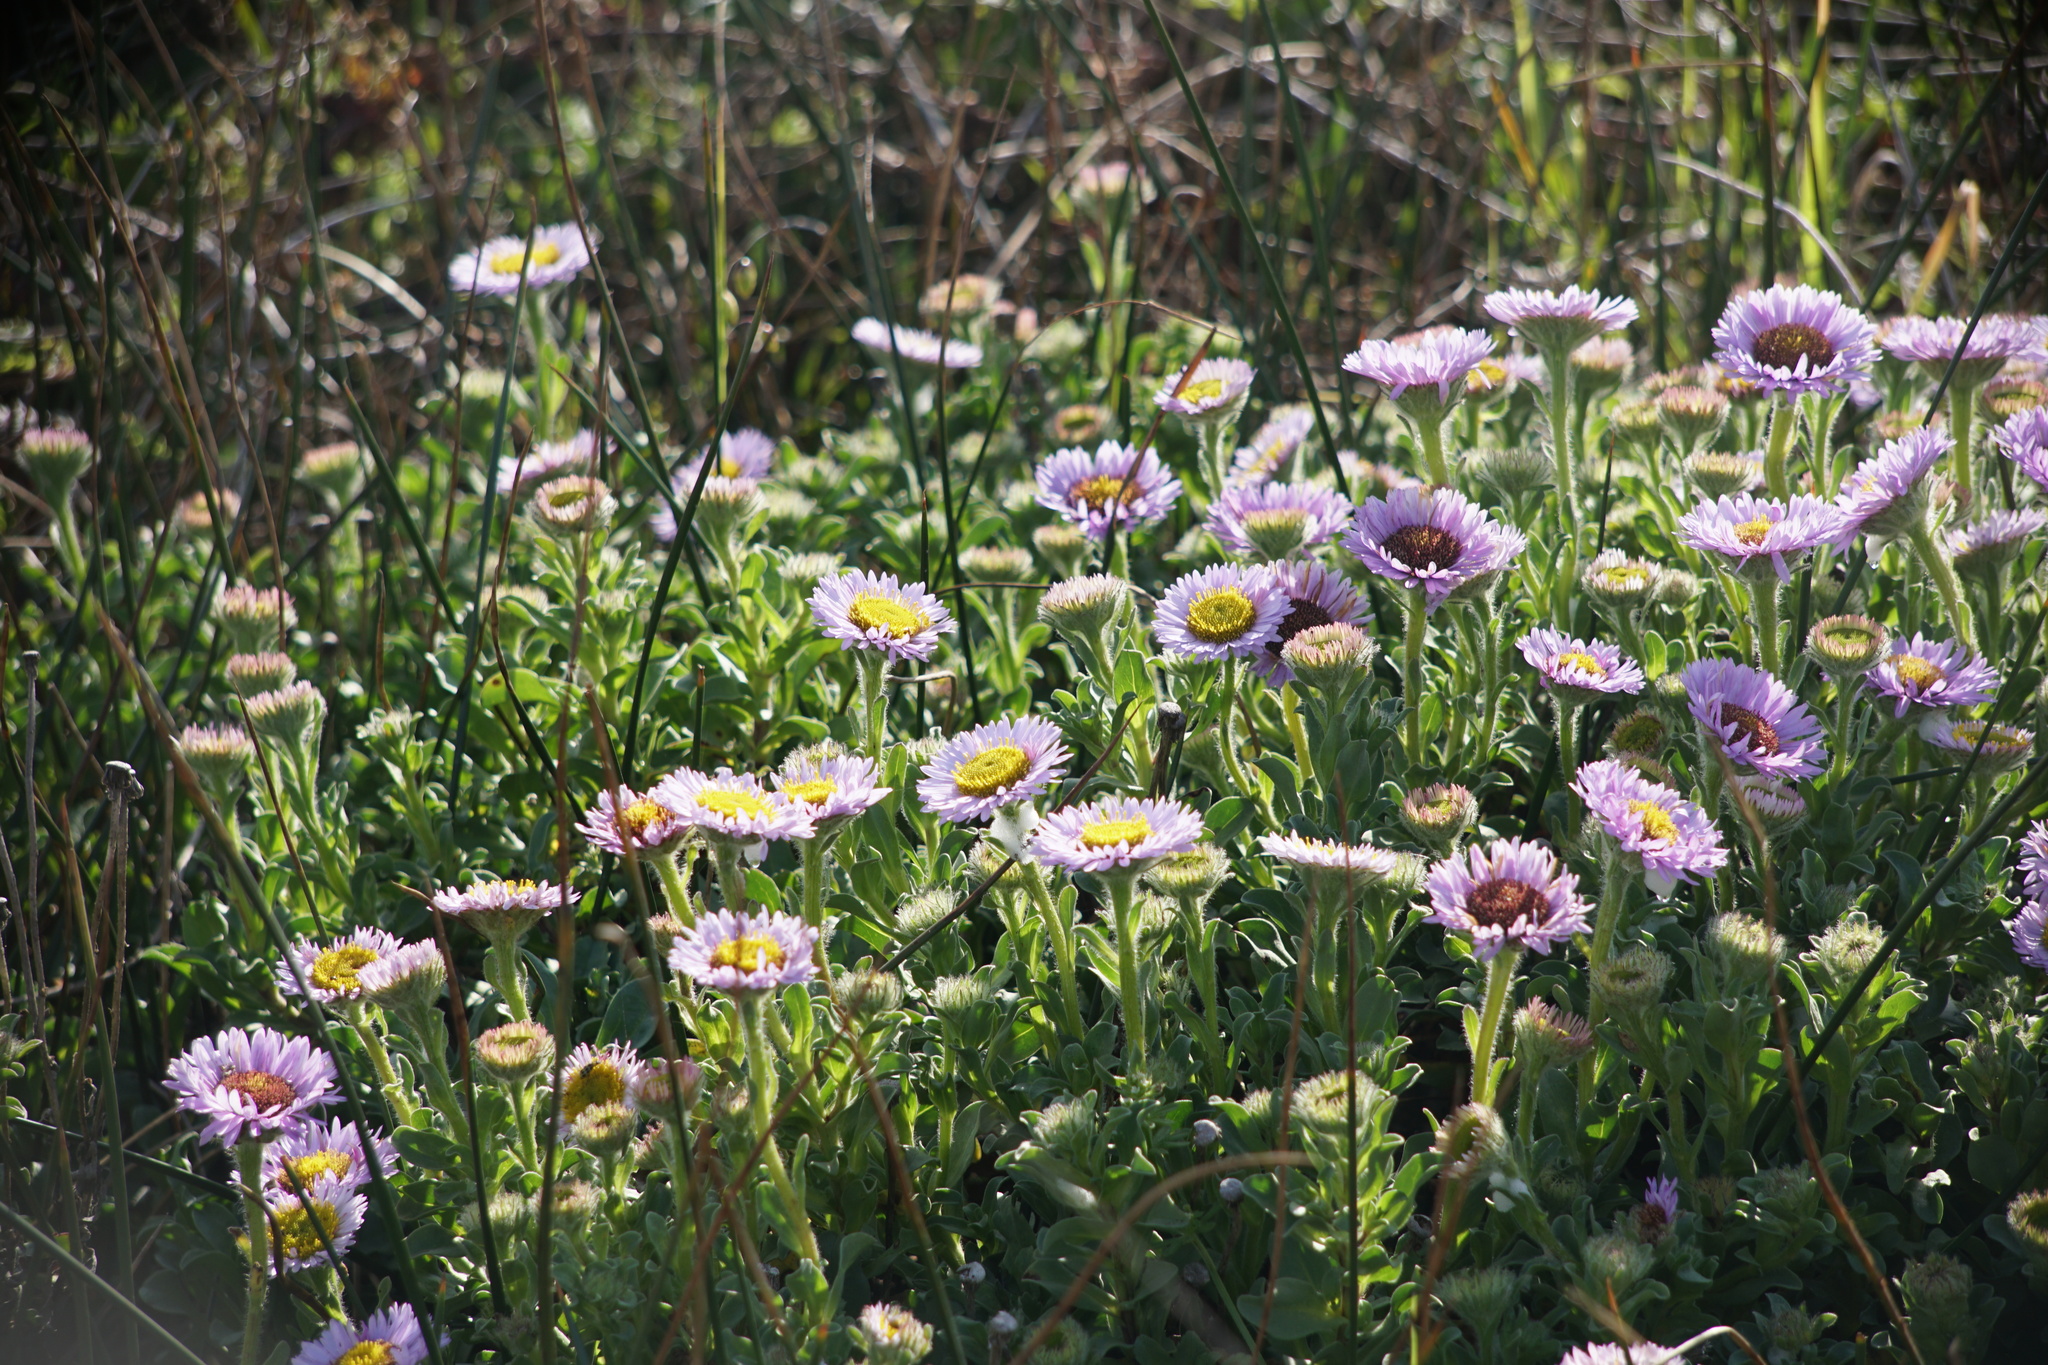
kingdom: Plantae
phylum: Tracheophyta
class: Magnoliopsida
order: Asterales
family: Asteraceae
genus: Erigeron
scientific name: Erigeron glaucus
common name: Seaside daisy
